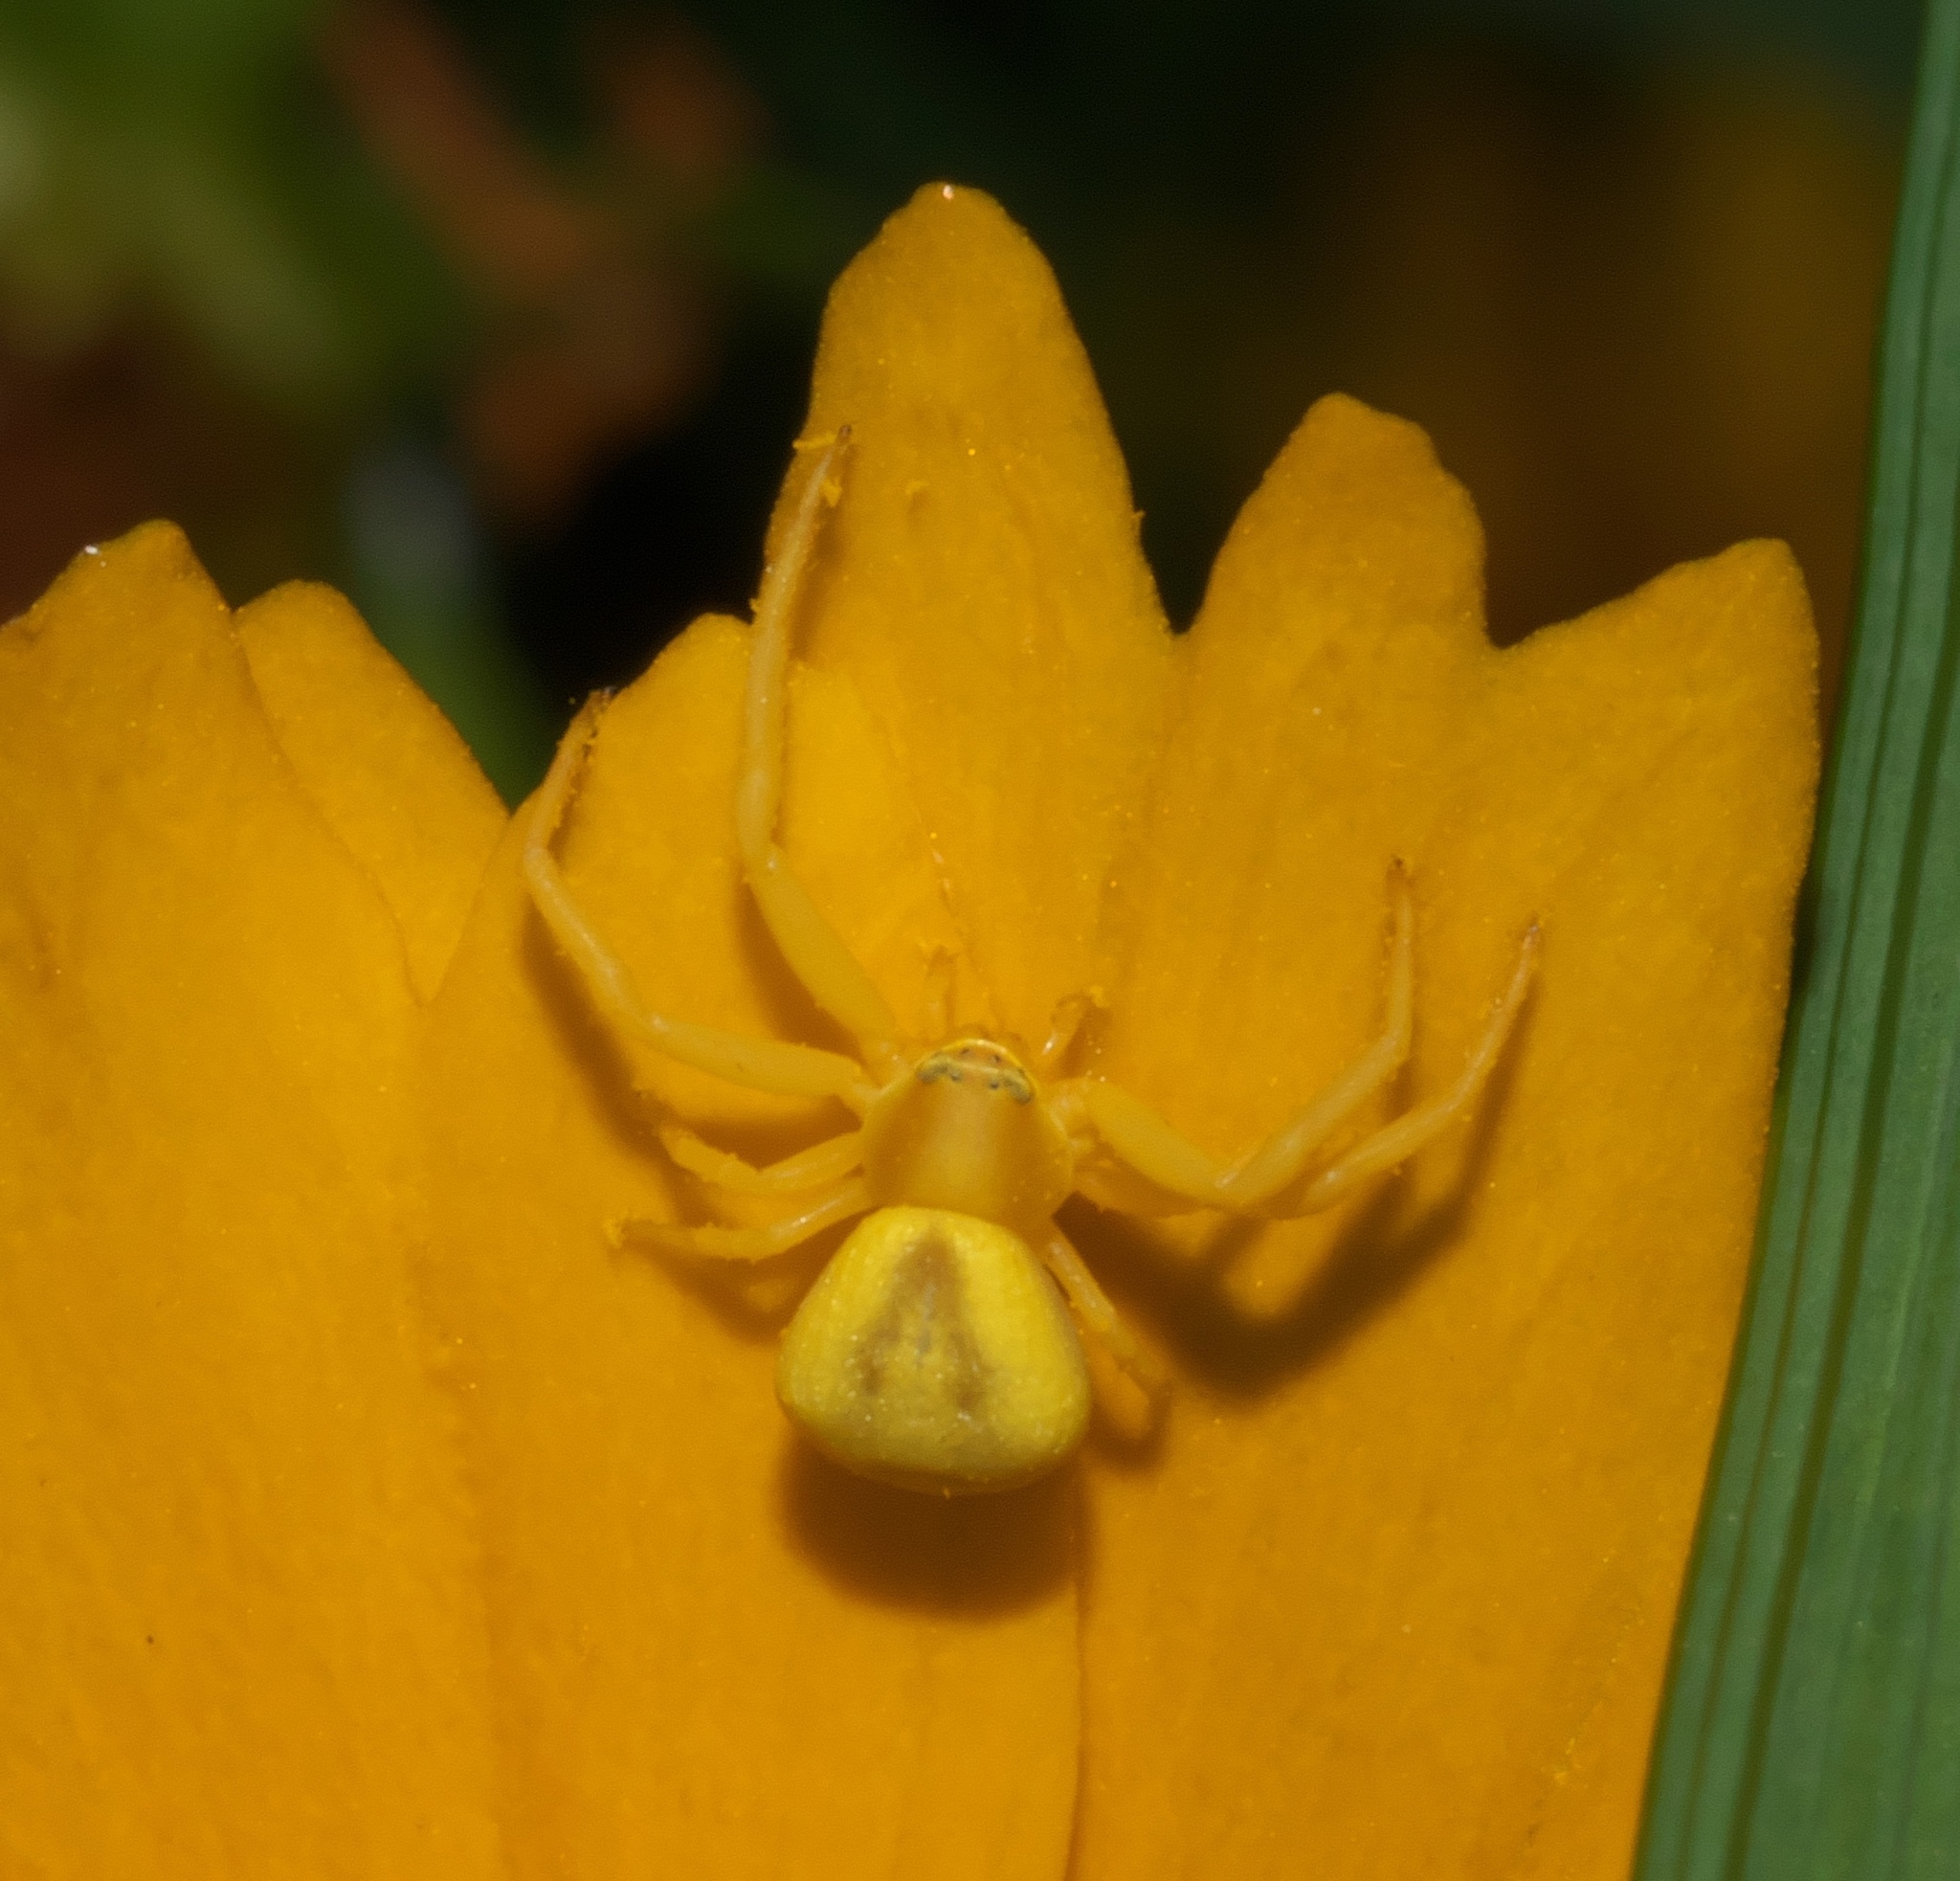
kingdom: Animalia
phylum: Arthropoda
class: Arachnida
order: Araneae
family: Thomisidae
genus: Misumenoides
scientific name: Misumenoides formosipes
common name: White-banded crab spider
